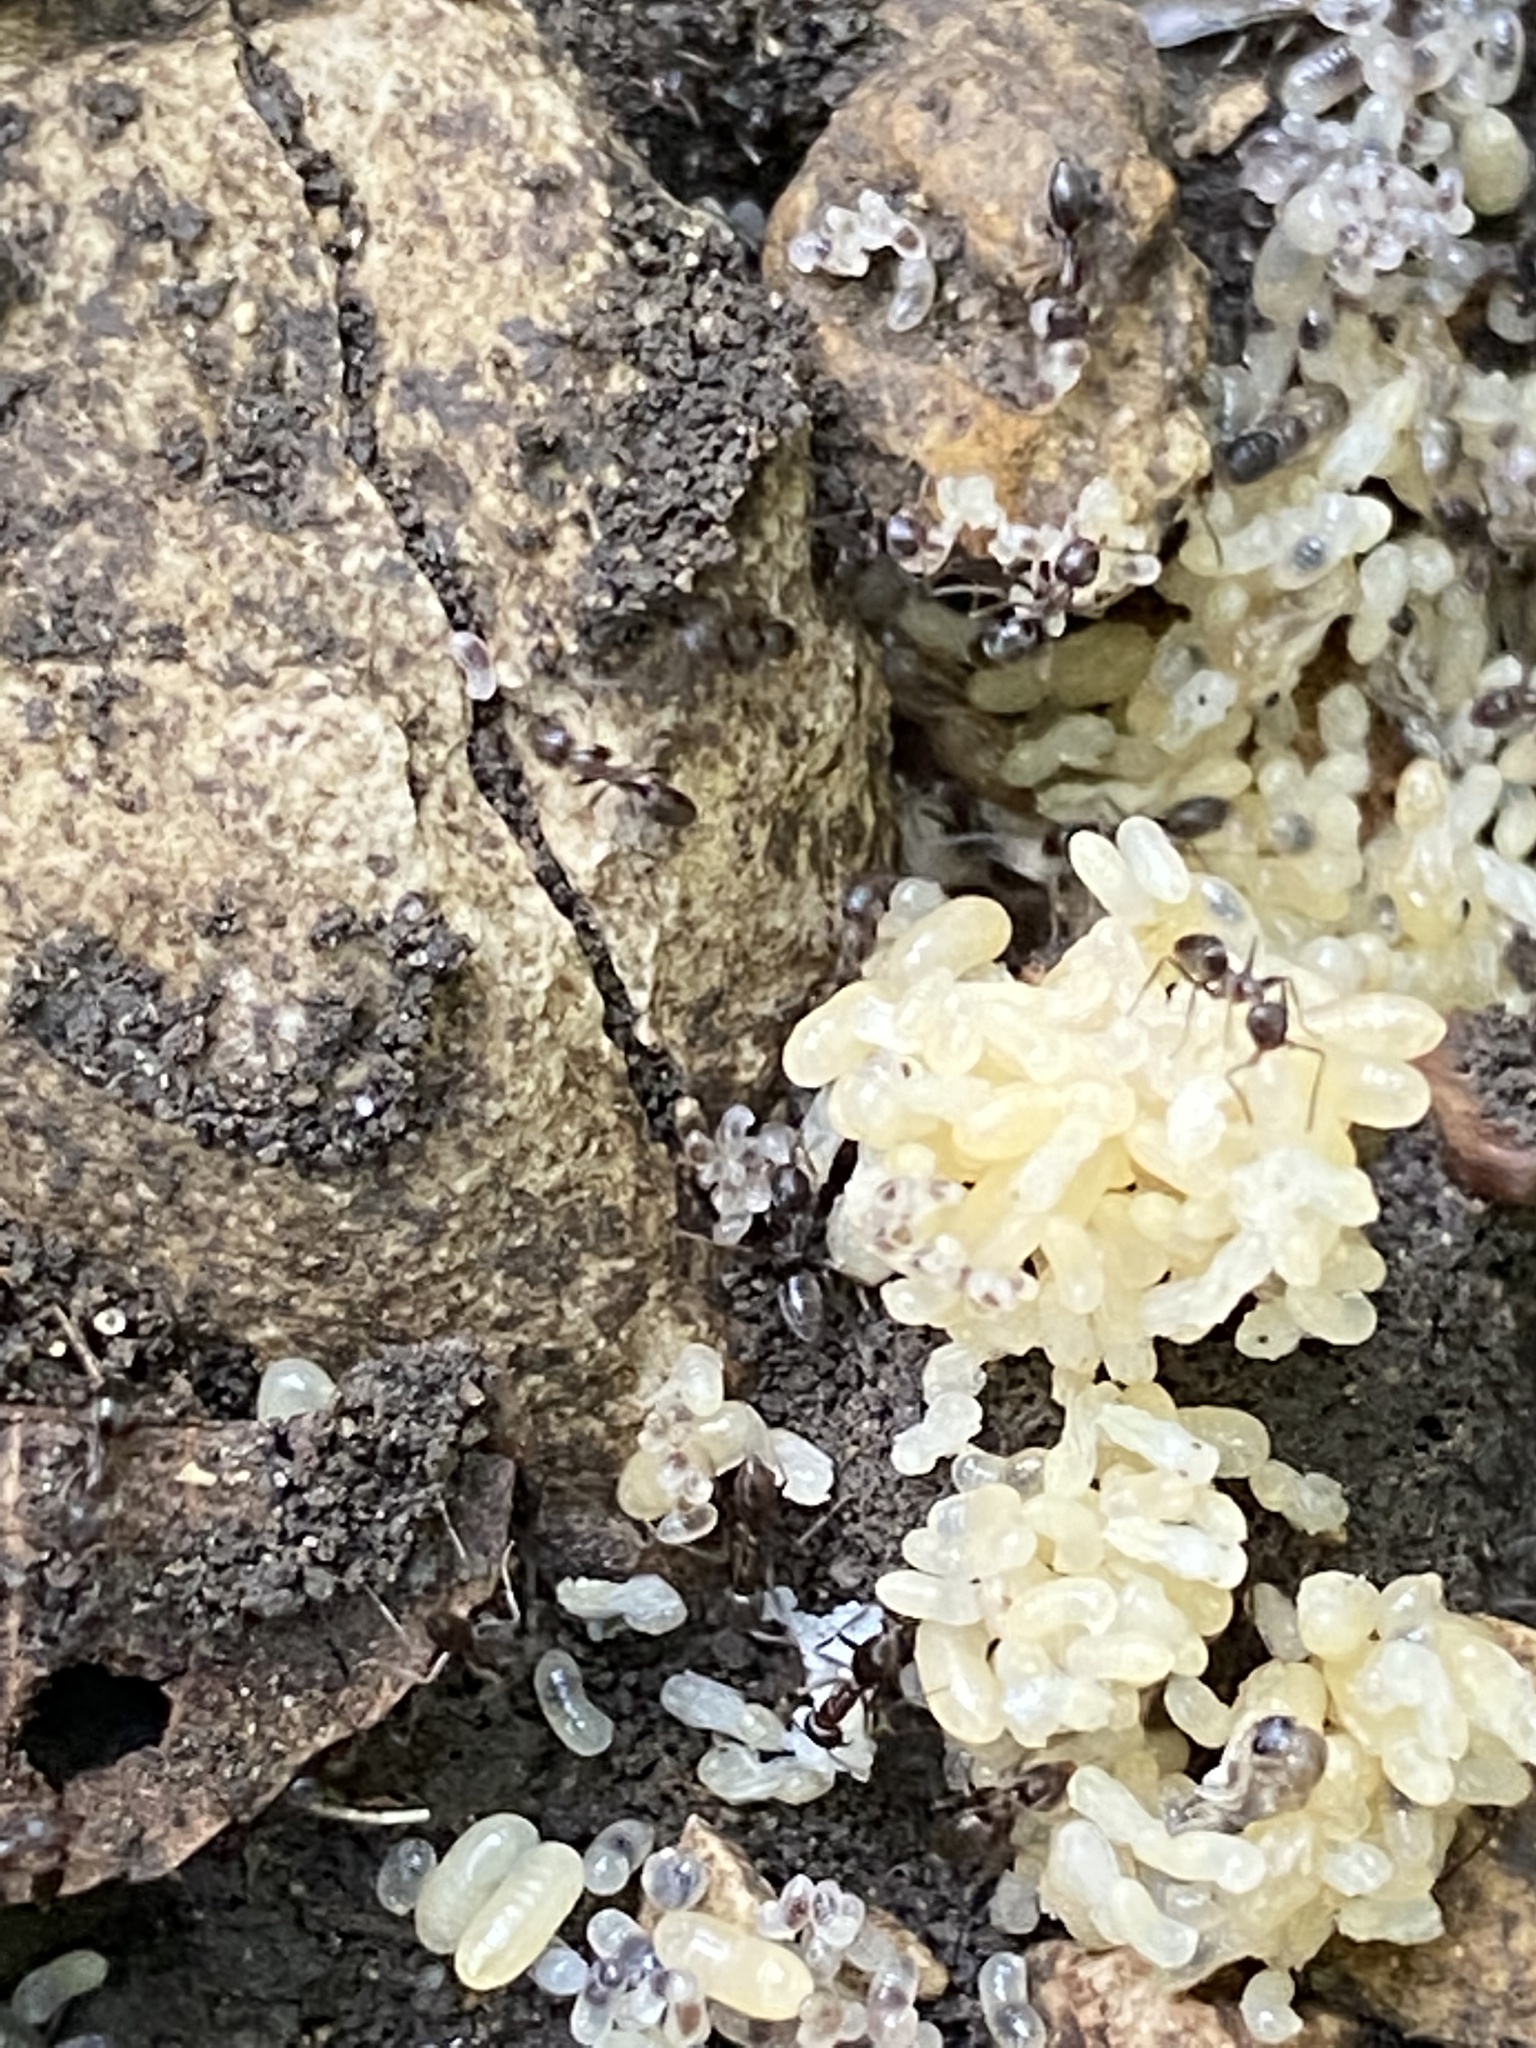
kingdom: Animalia
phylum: Arthropoda
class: Insecta
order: Hymenoptera
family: Formicidae
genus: Linepithema
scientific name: Linepithema humile
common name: Argentine ant
